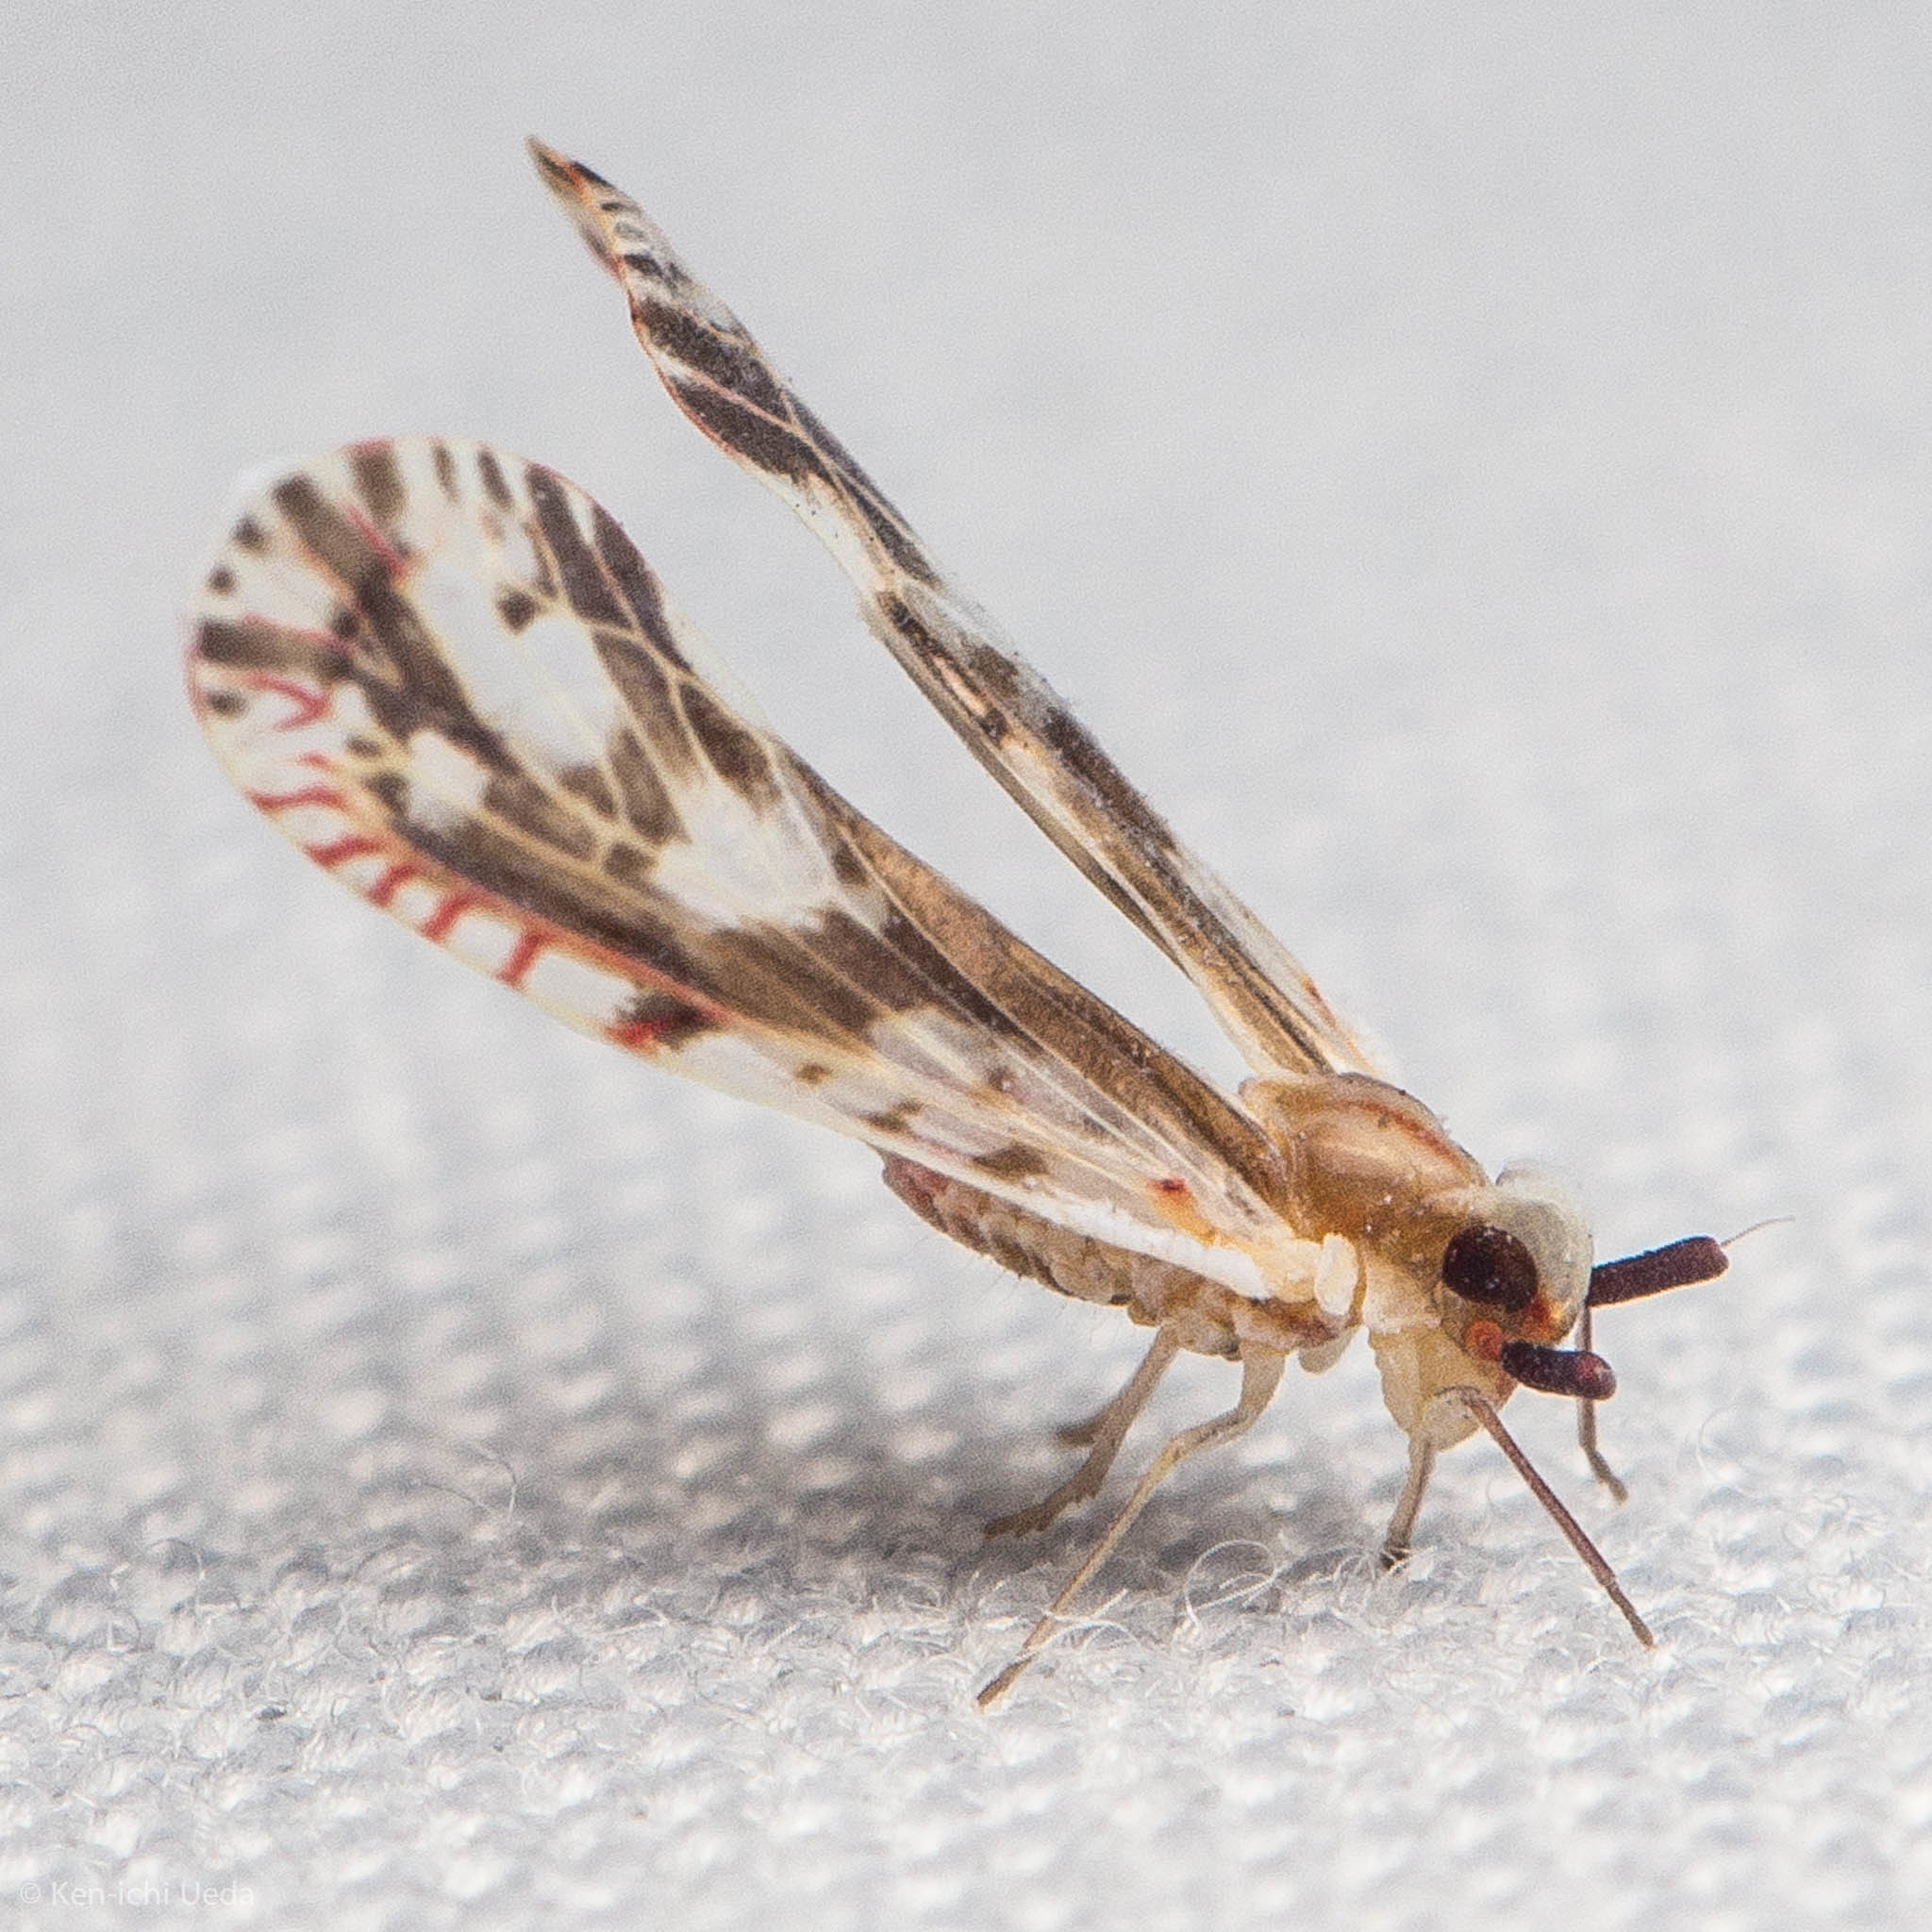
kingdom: Animalia
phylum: Arthropoda
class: Insecta
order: Hemiptera
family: Derbidae
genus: Anotia
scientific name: Anotia fitchi
